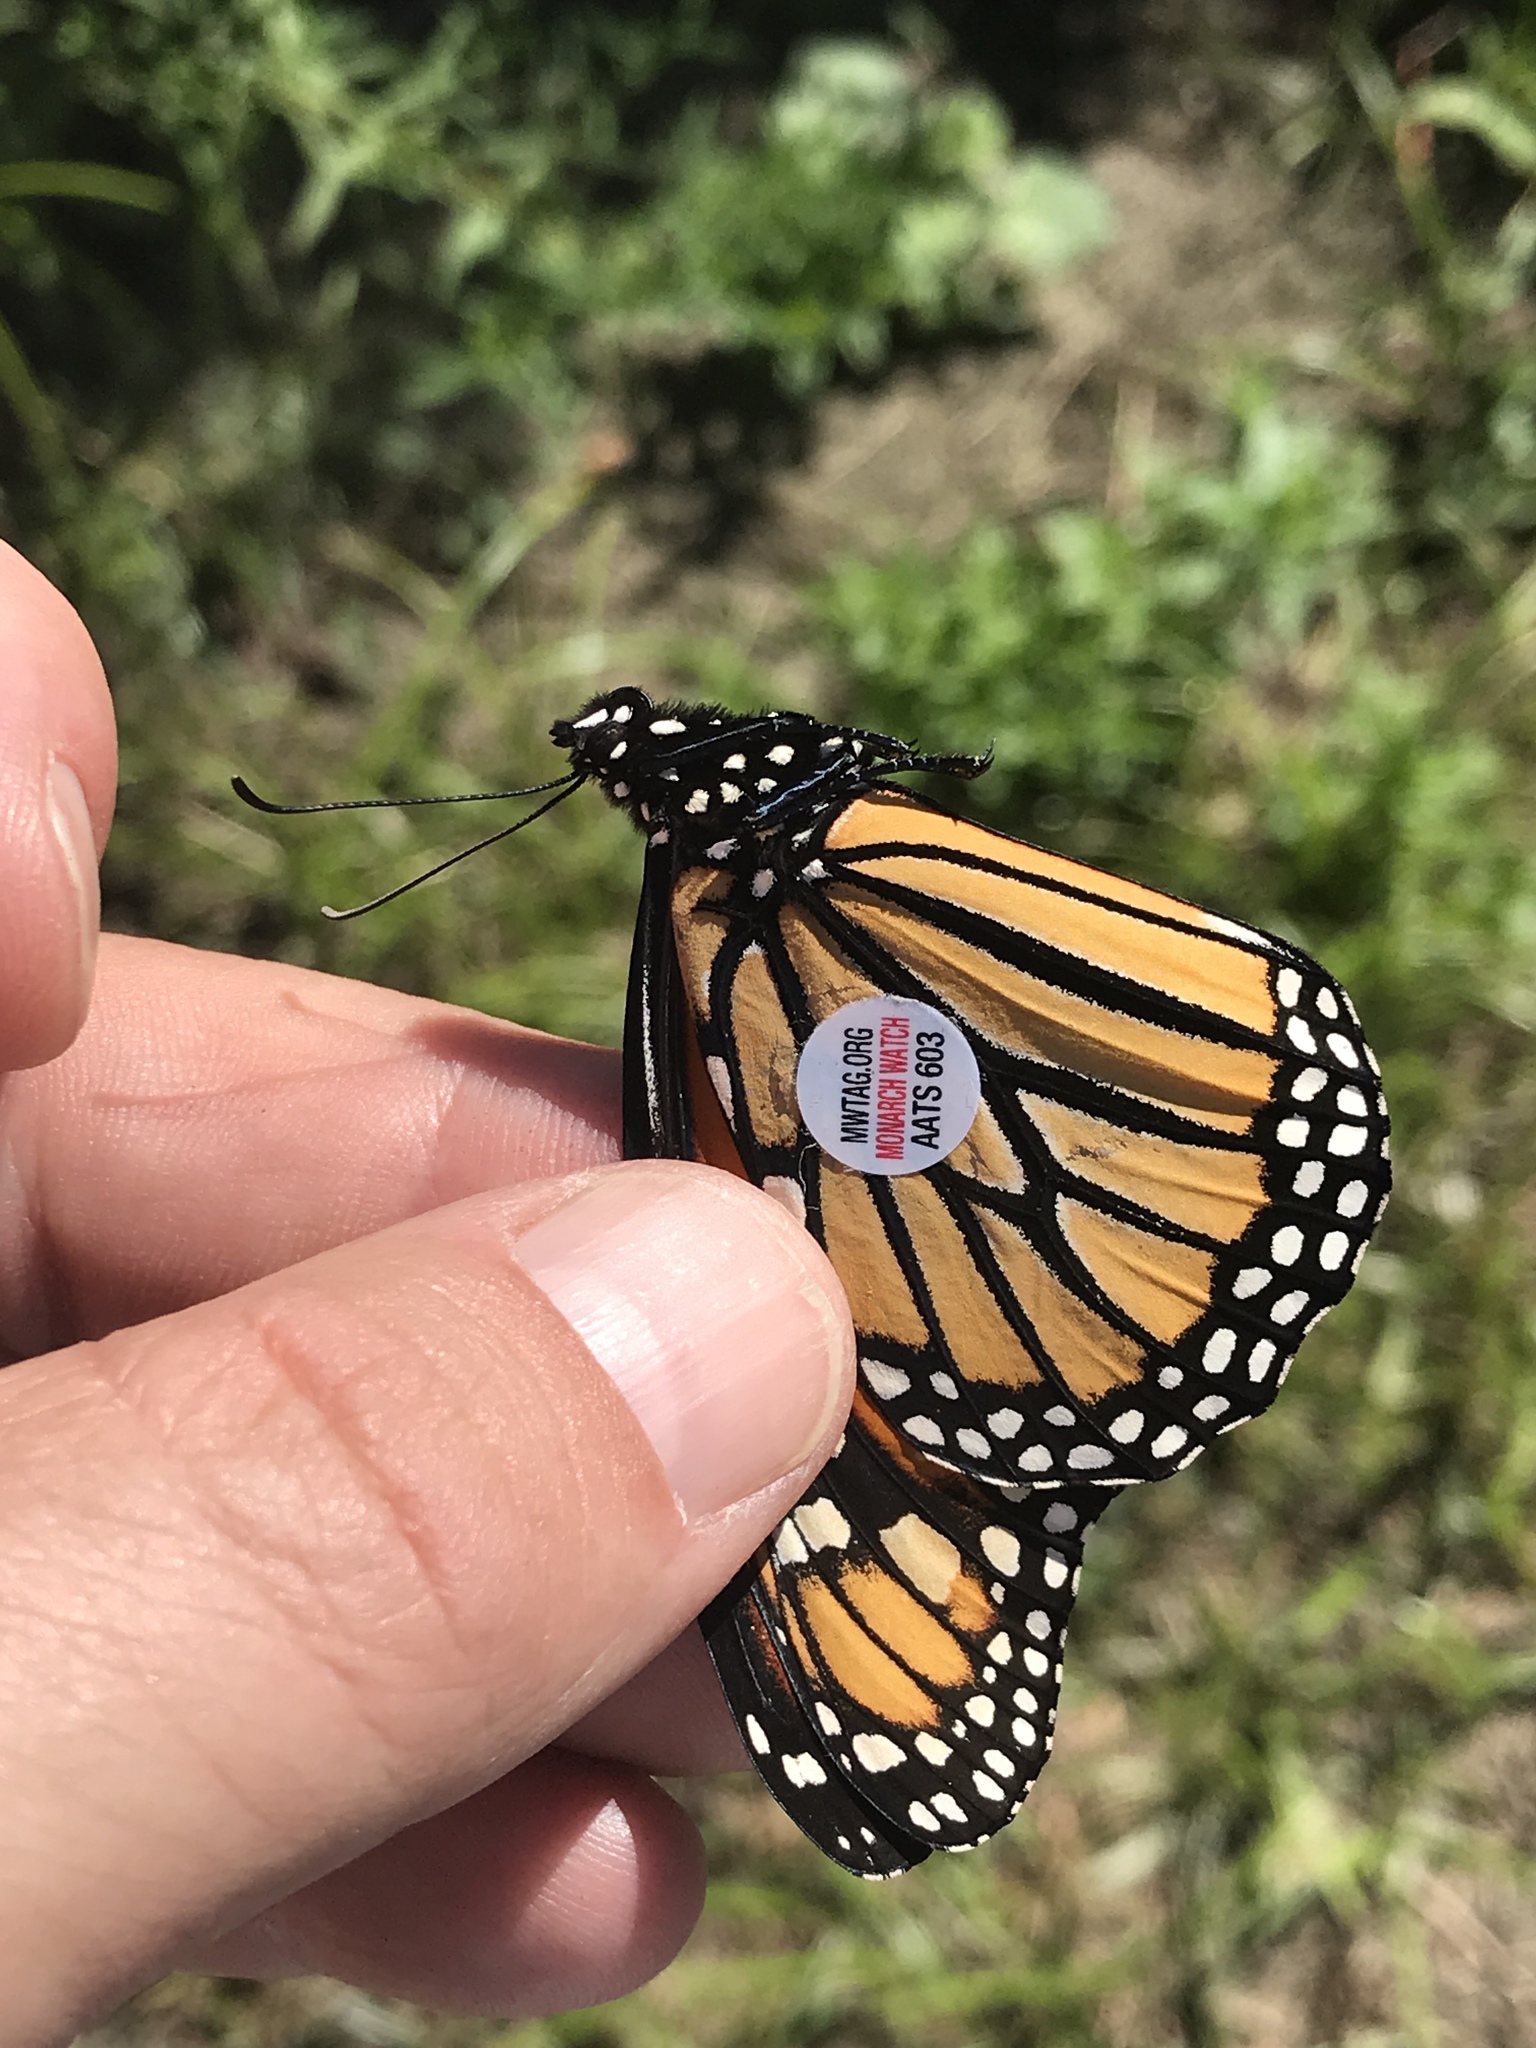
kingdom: Animalia
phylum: Arthropoda
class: Insecta
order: Lepidoptera
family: Nymphalidae
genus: Danaus
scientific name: Danaus plexippus
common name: Monarch
